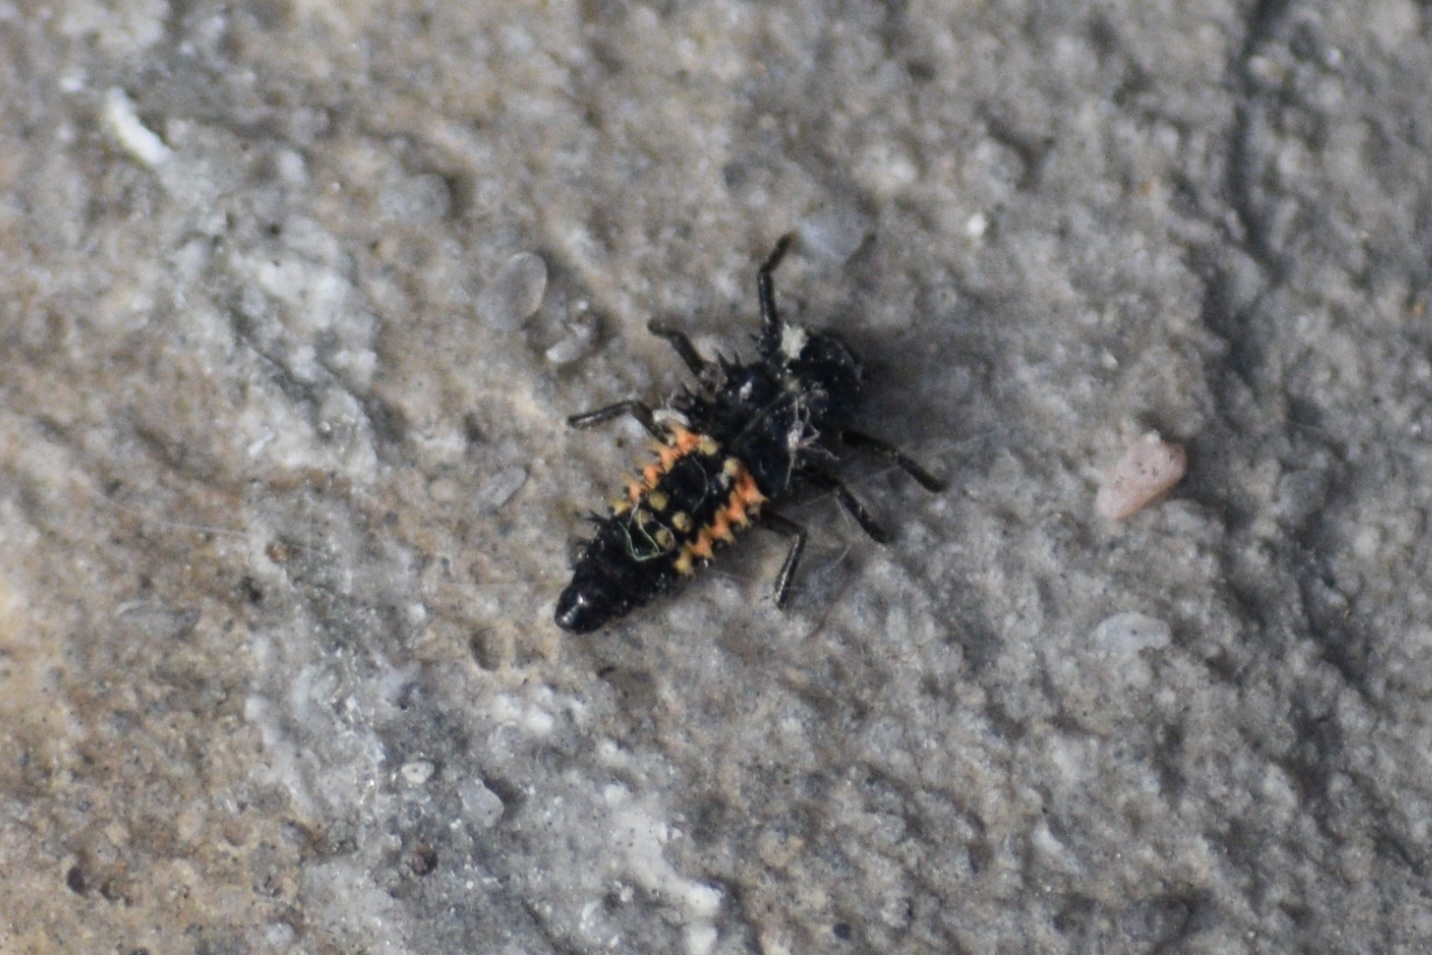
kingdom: Animalia
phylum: Arthropoda
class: Insecta
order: Coleoptera
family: Coccinellidae
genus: Harmonia
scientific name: Harmonia axyridis
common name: Harlequin ladybird
